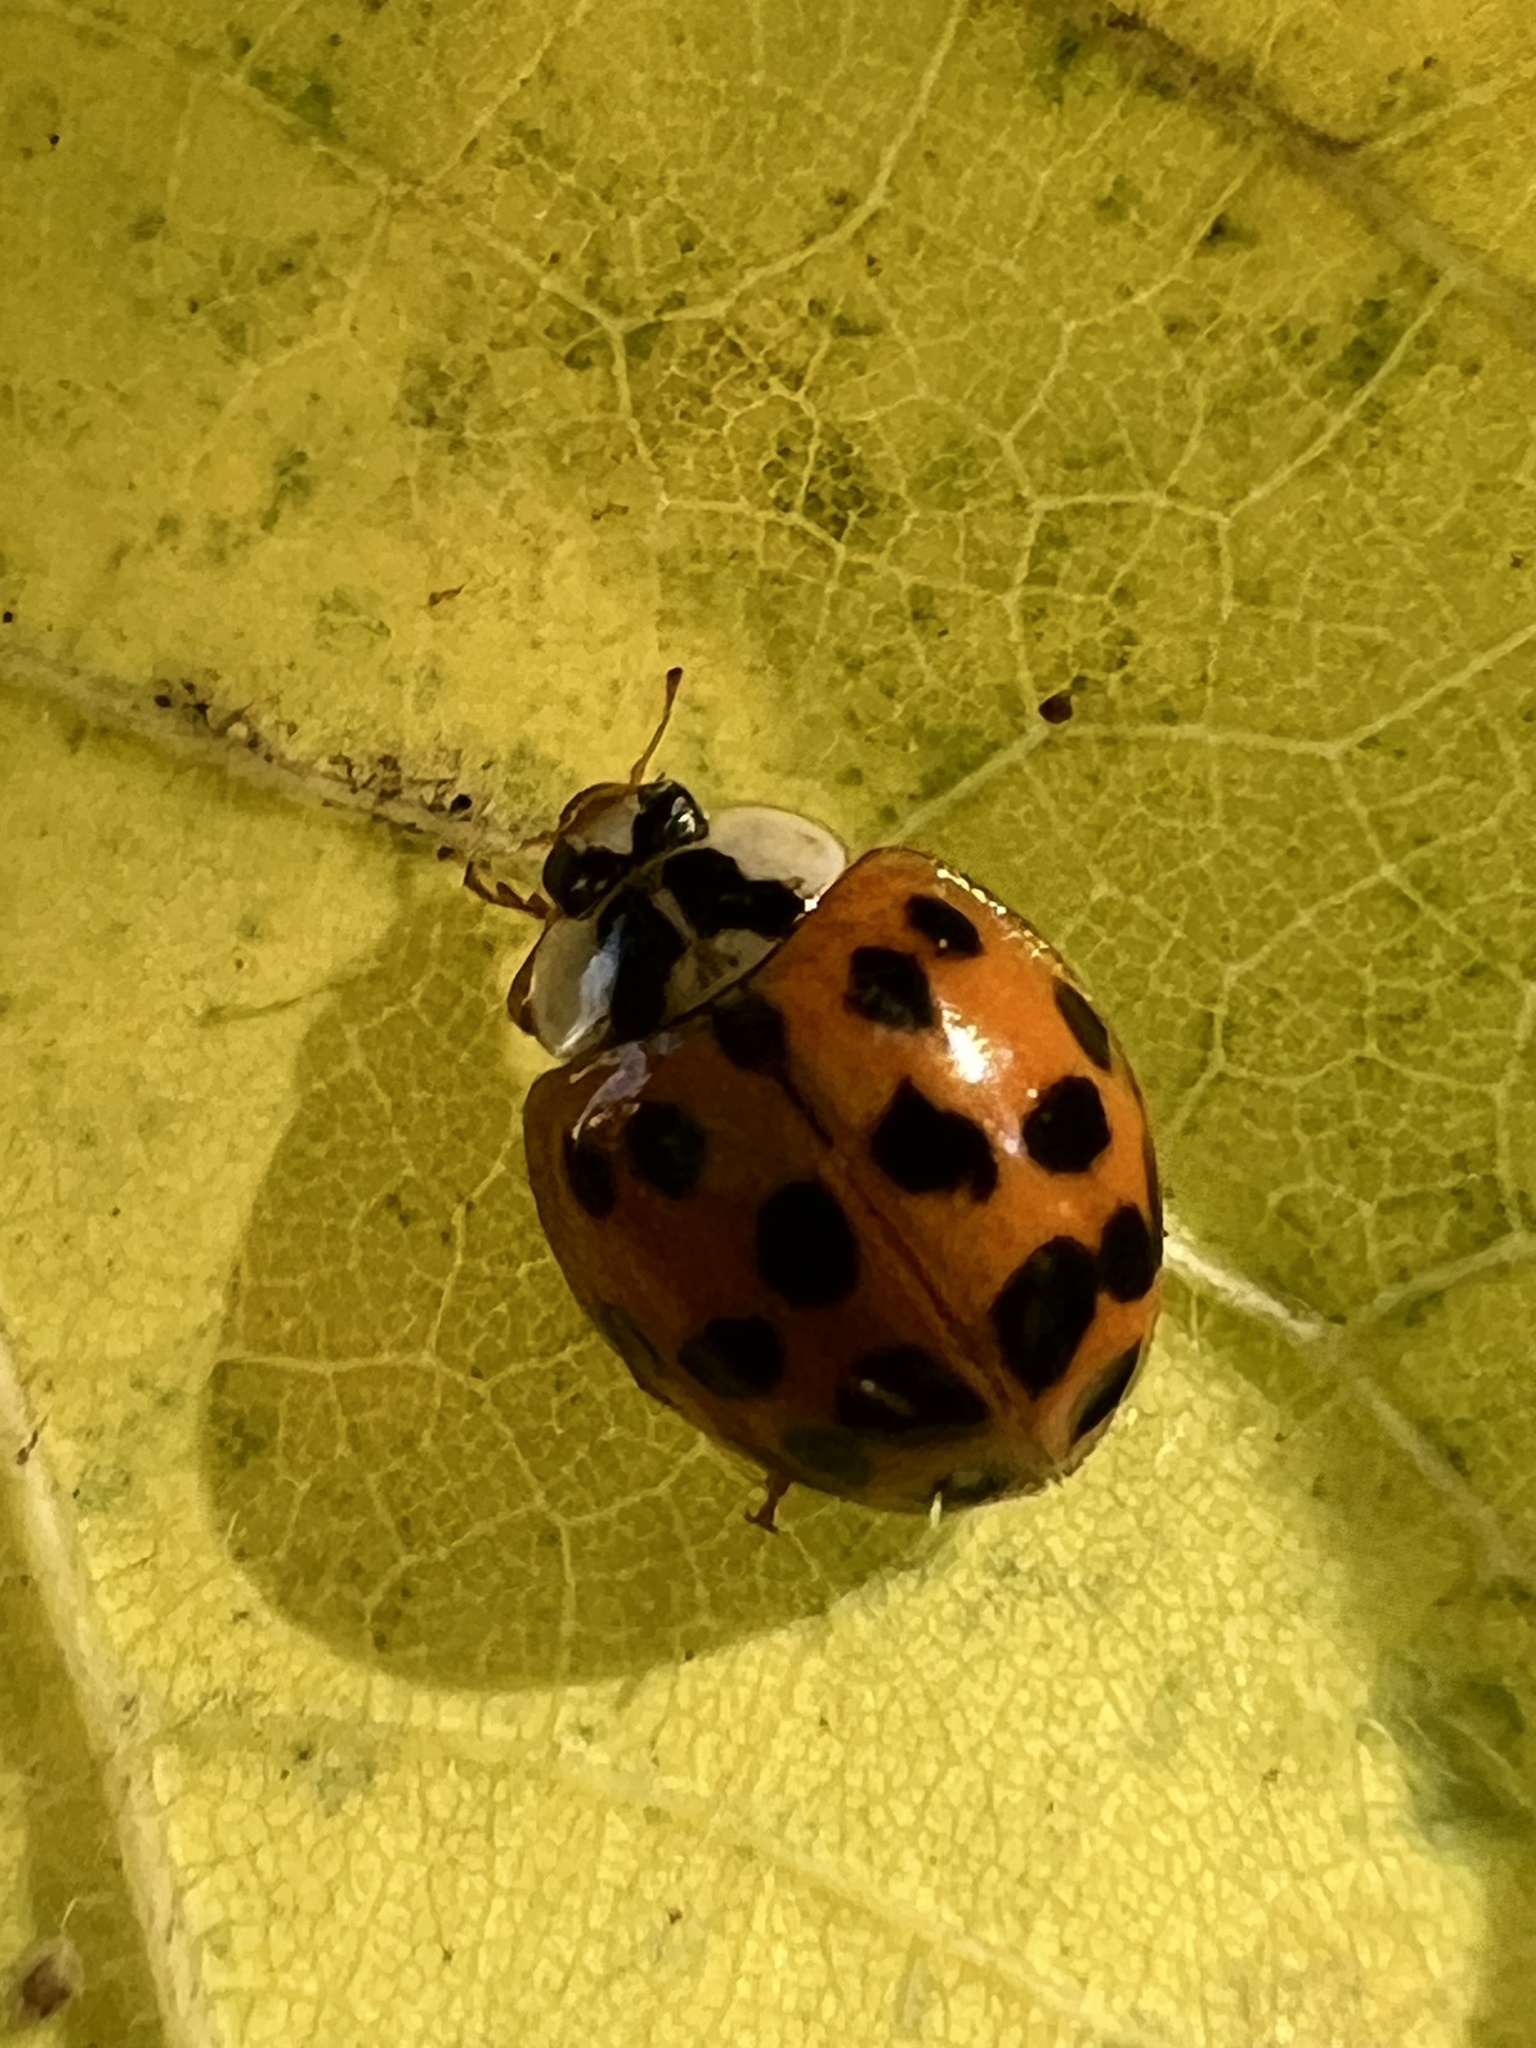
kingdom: Animalia
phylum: Arthropoda
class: Insecta
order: Coleoptera
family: Coccinellidae
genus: Harmonia
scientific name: Harmonia axyridis
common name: Harlequin ladybird
